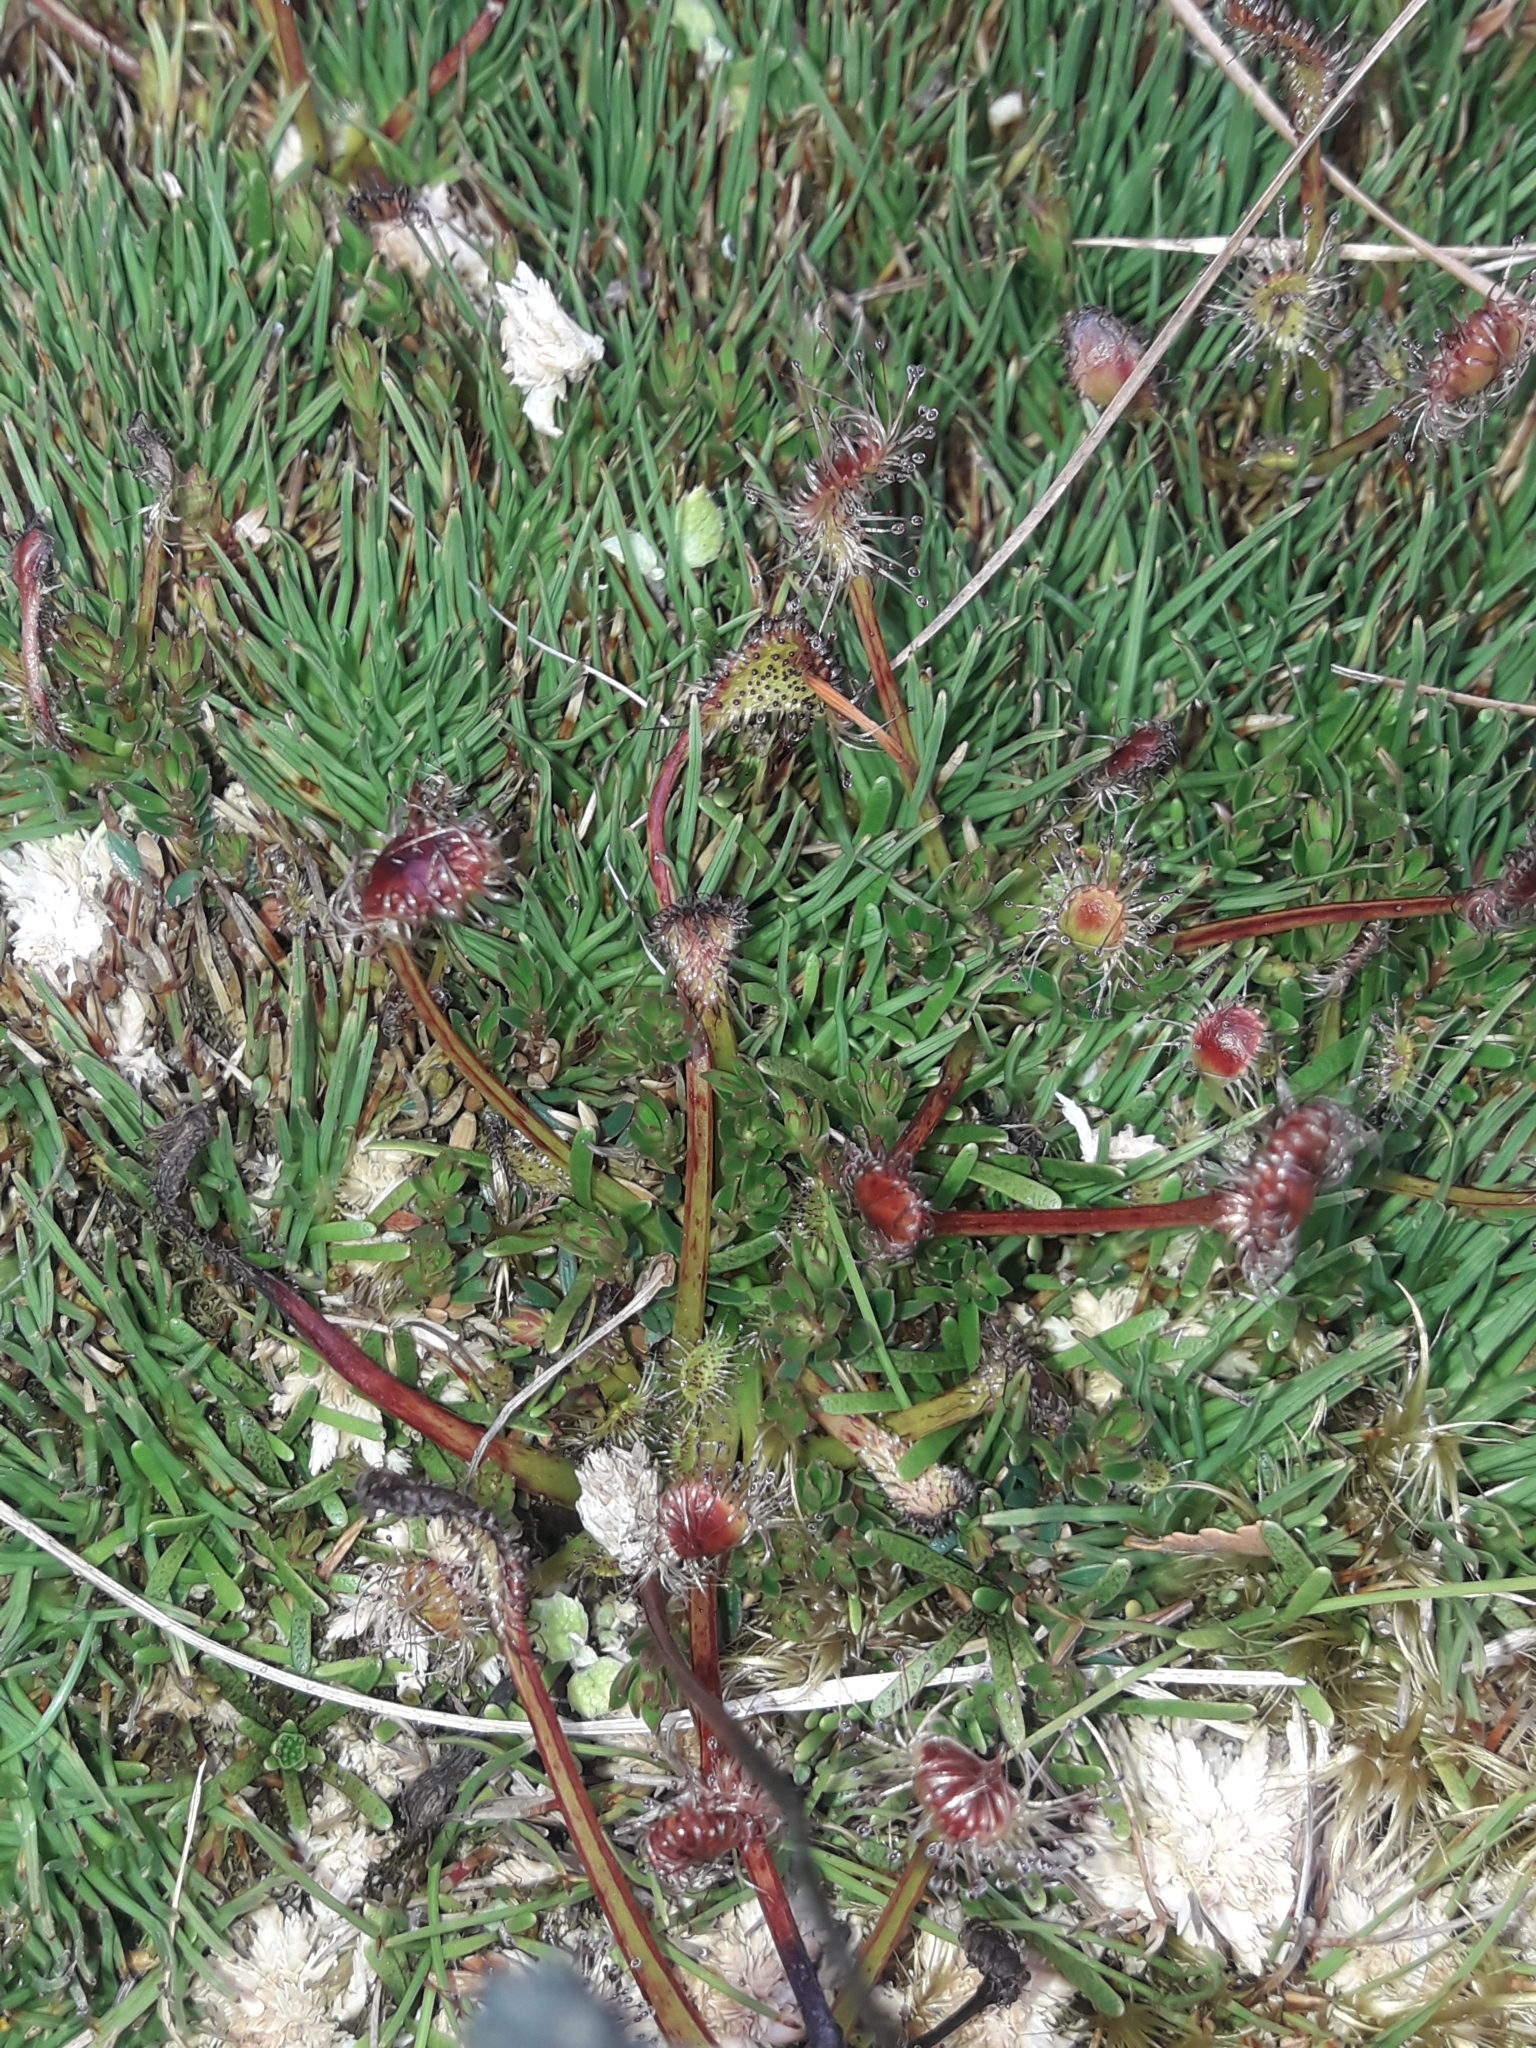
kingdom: Plantae
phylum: Tracheophyta
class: Magnoliopsida
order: Caryophyllales
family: Droseraceae
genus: Drosera
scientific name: Drosera stenopetala
